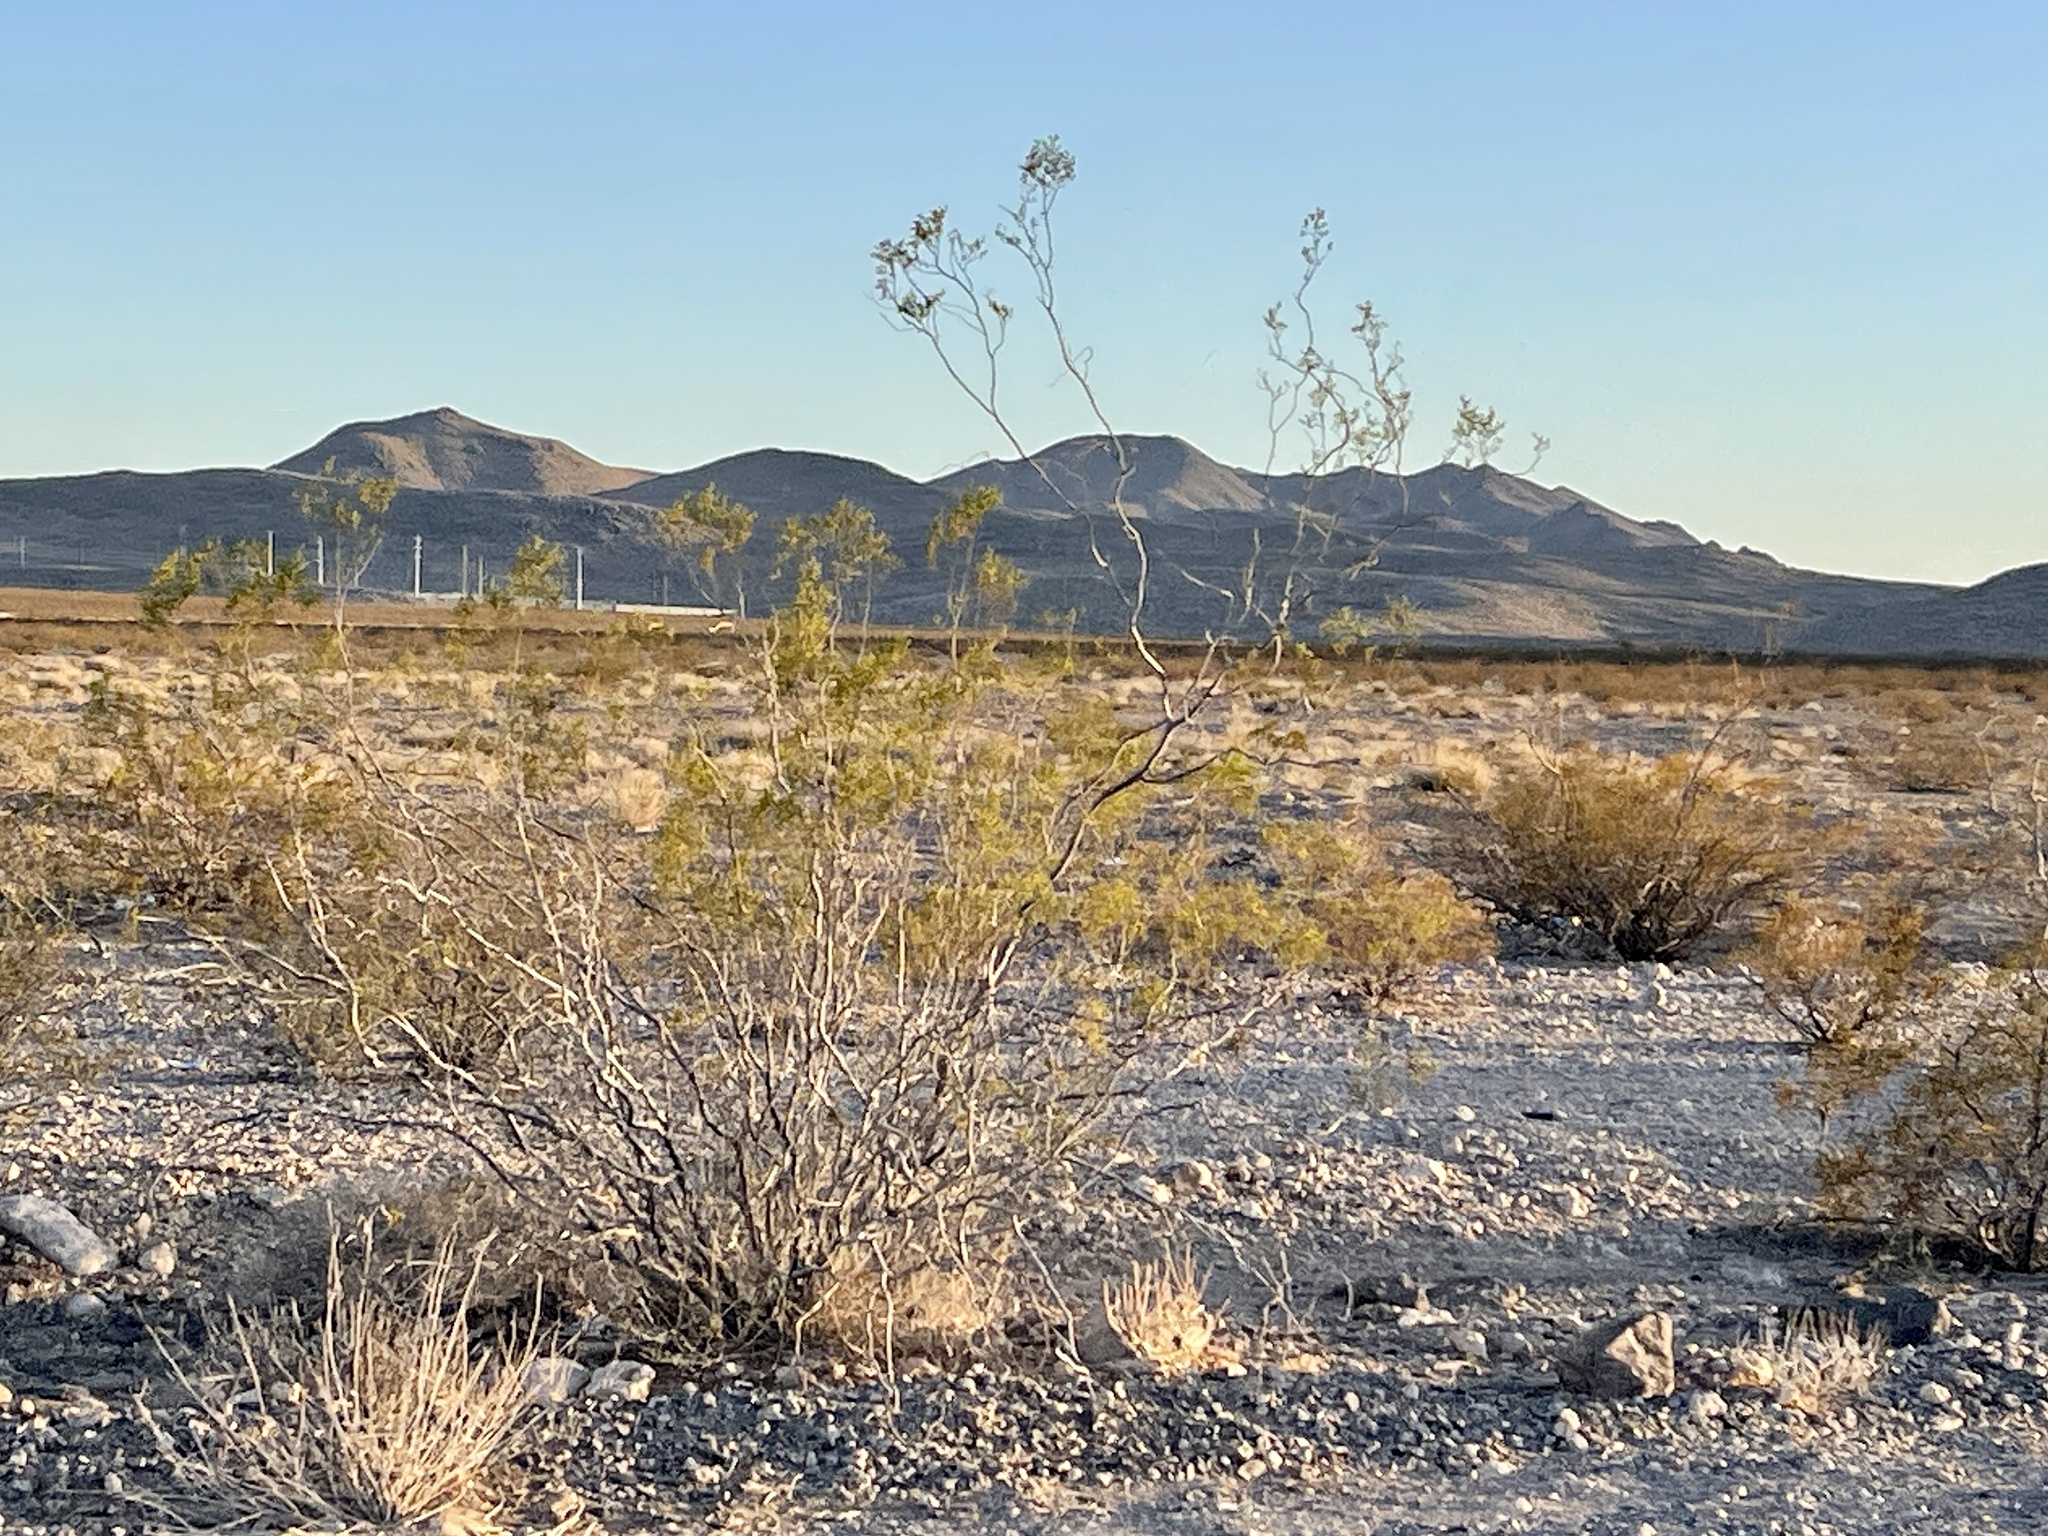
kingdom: Plantae
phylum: Tracheophyta
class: Magnoliopsida
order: Zygophyllales
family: Zygophyllaceae
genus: Larrea
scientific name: Larrea tridentata
